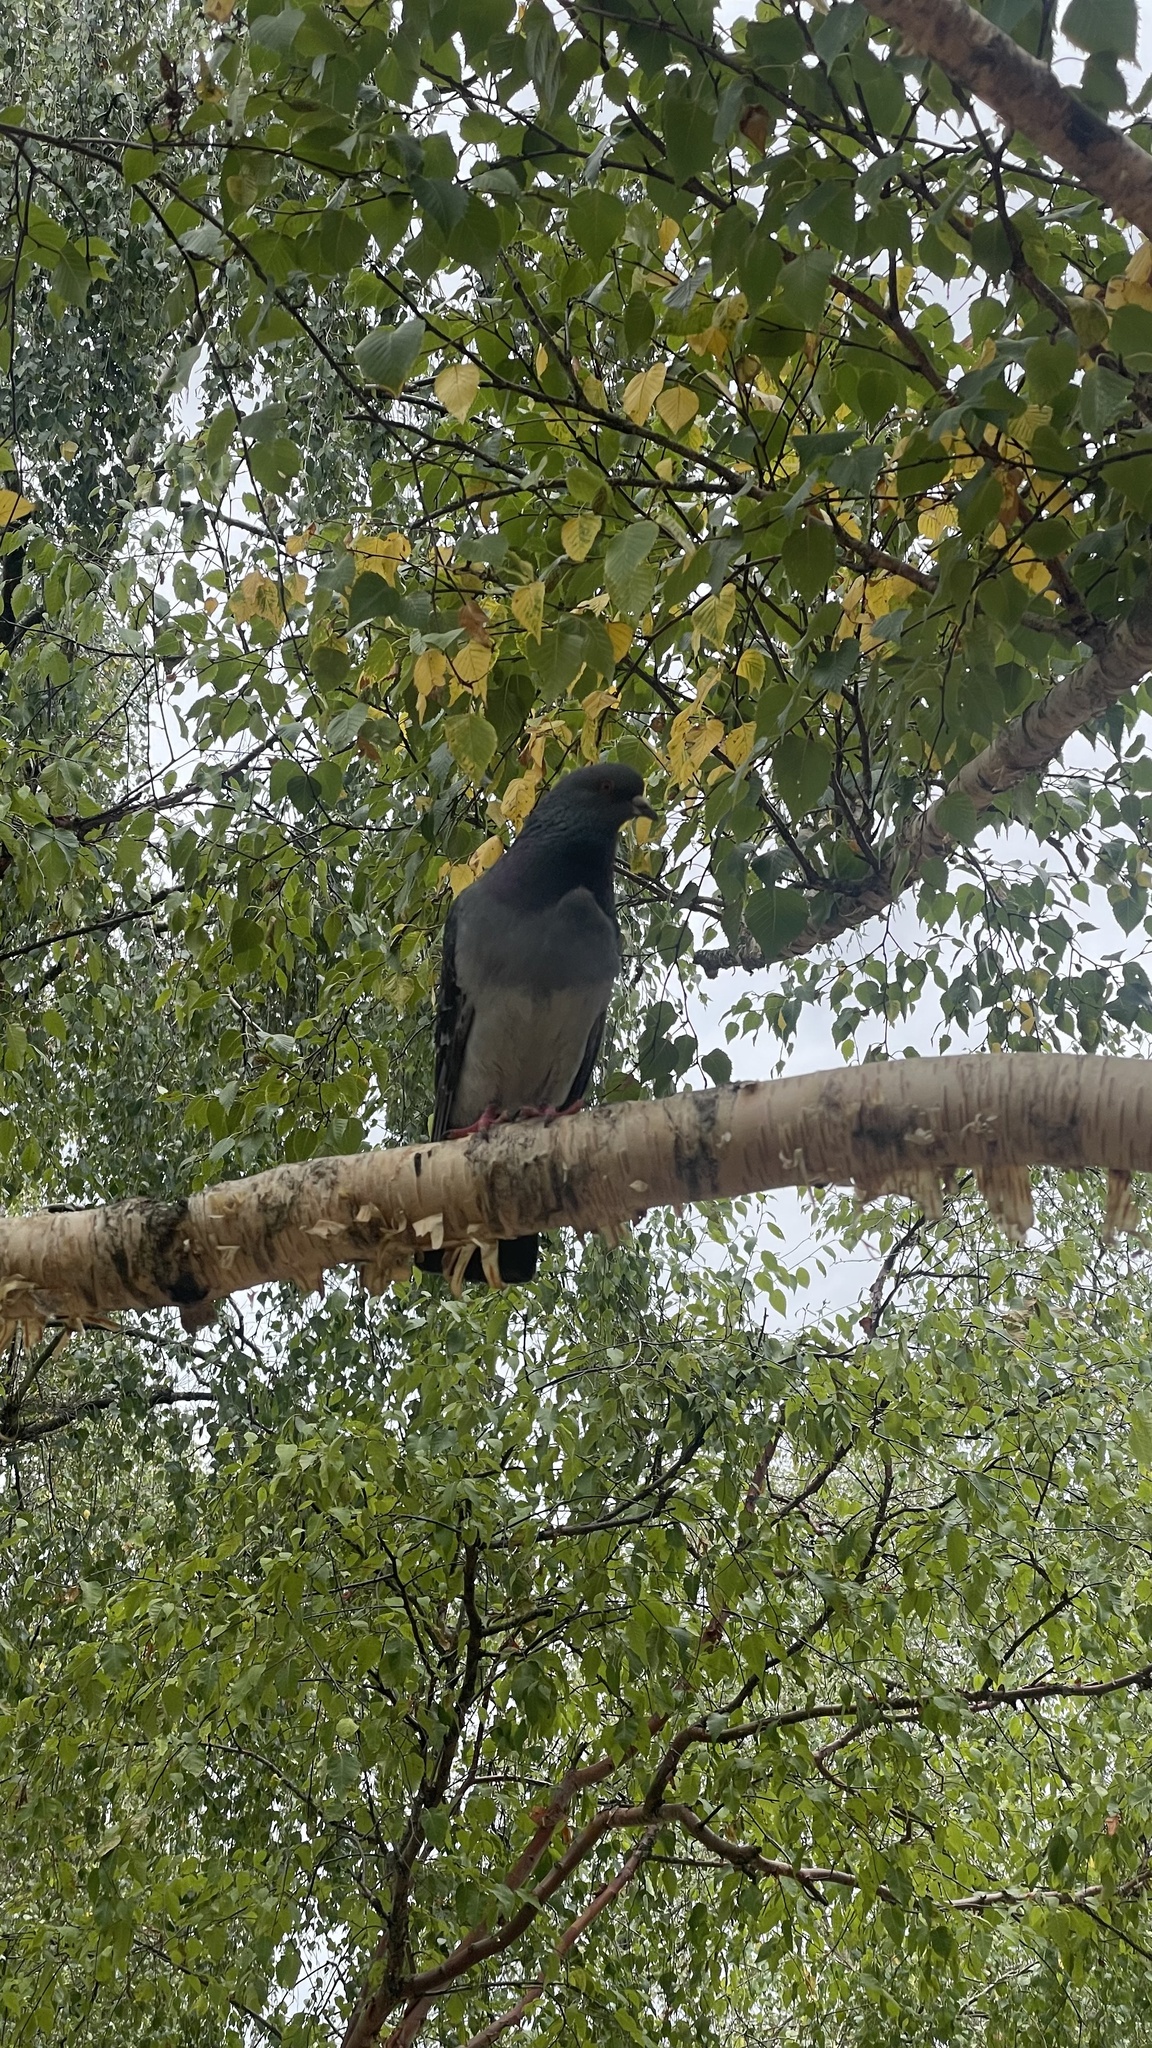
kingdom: Animalia
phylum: Chordata
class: Aves
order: Columbiformes
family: Columbidae
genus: Columba
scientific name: Columba palumbus
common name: Common wood pigeon
